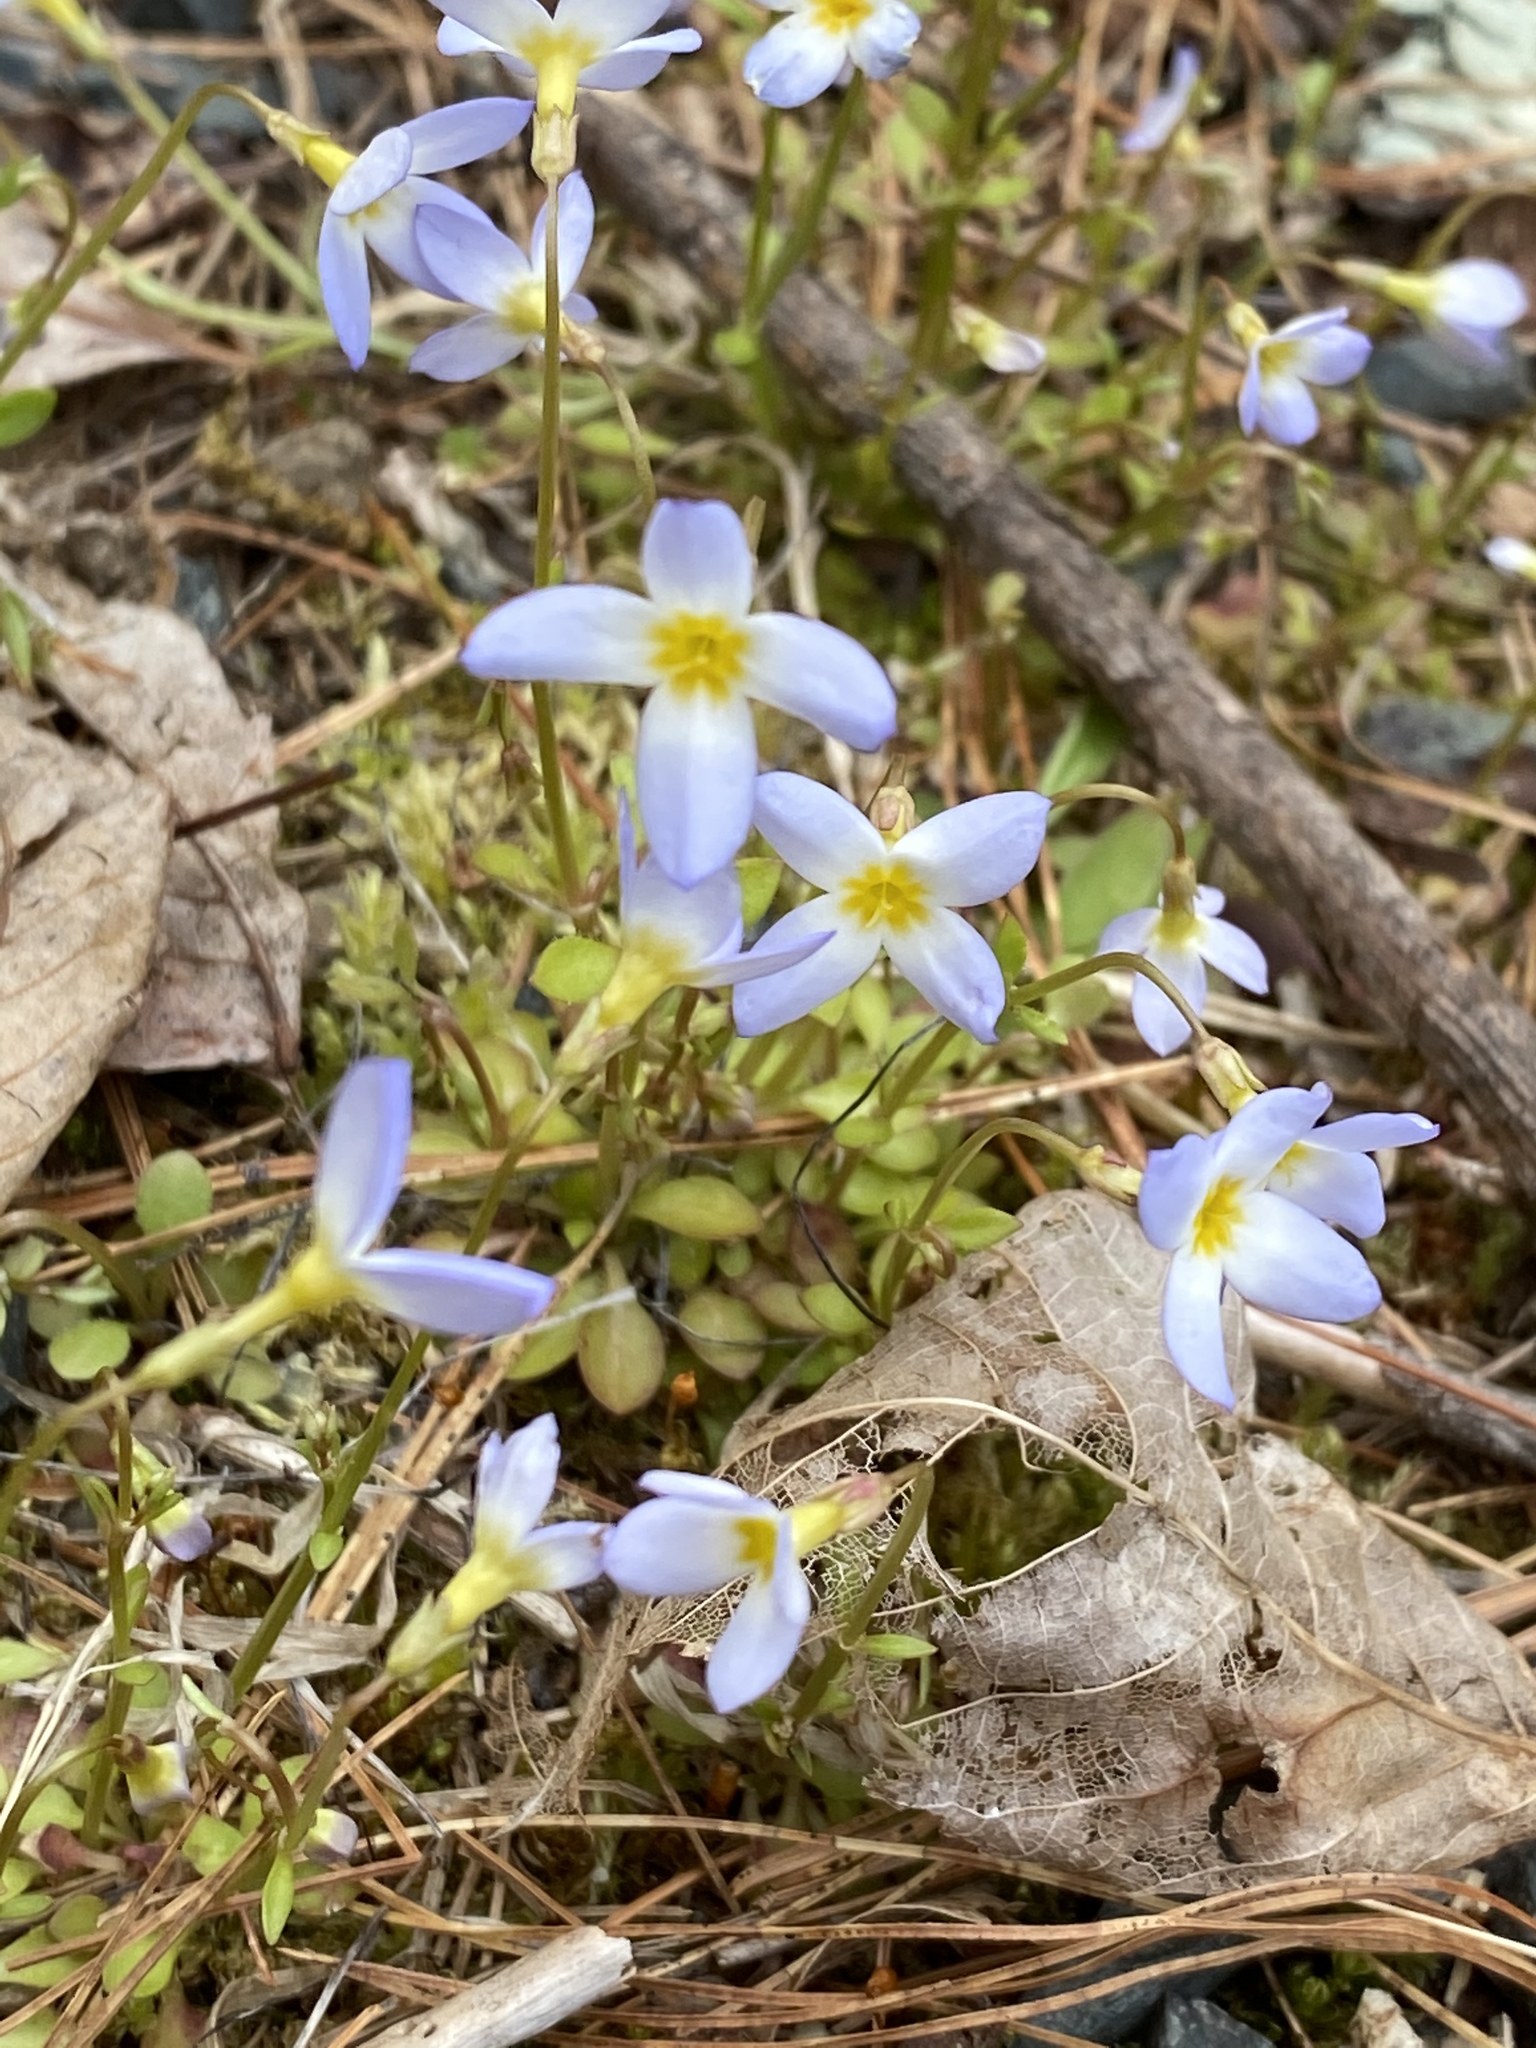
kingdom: Plantae
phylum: Tracheophyta
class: Magnoliopsida
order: Gentianales
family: Rubiaceae
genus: Houstonia
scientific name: Houstonia caerulea
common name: Bluets
